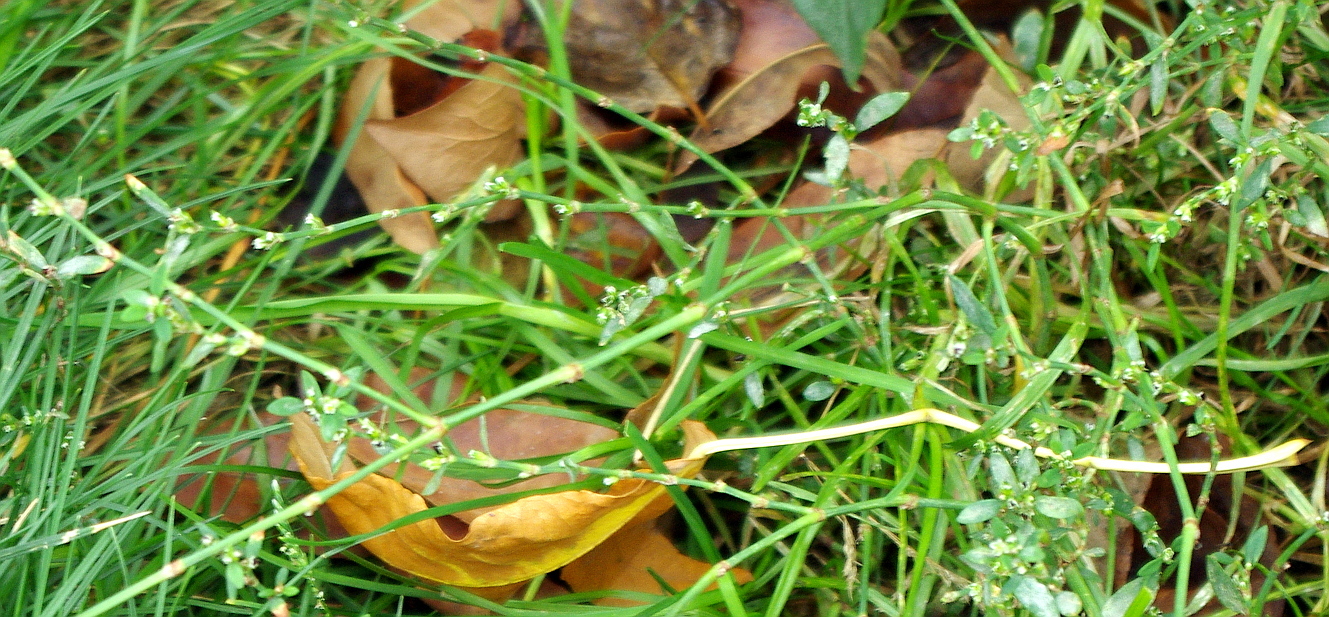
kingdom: Plantae
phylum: Tracheophyta
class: Magnoliopsida
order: Caryophyllales
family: Polygonaceae
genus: Polygonum
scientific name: Polygonum
